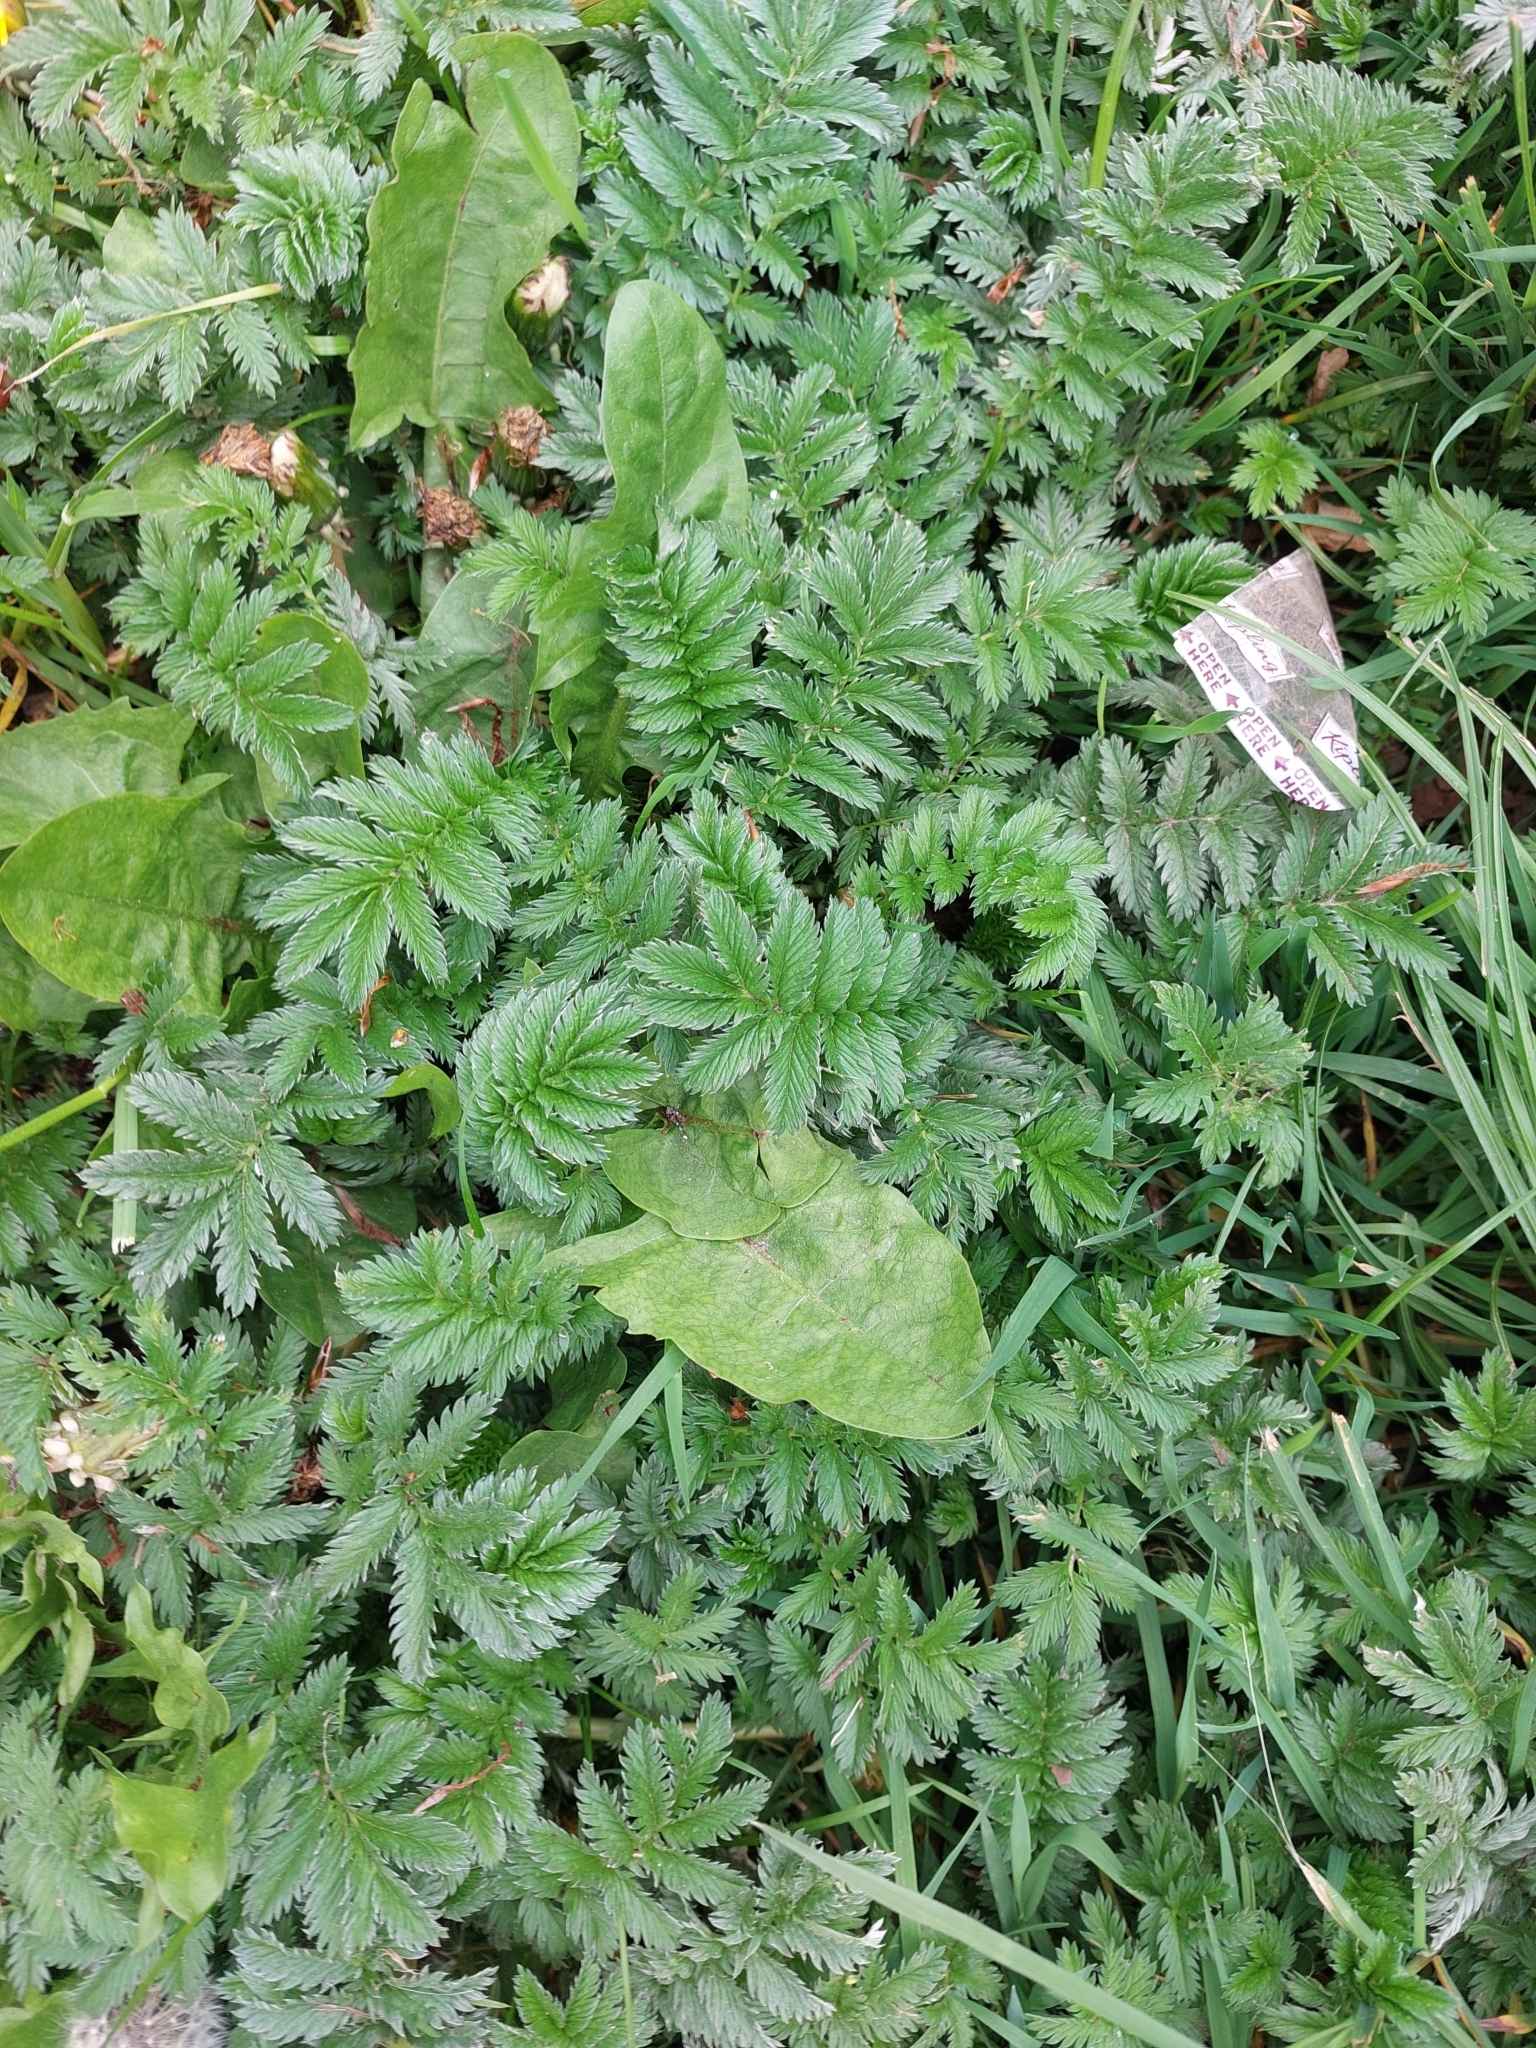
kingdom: Plantae
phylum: Tracheophyta
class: Magnoliopsida
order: Rosales
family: Rosaceae
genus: Argentina
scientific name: Argentina anserina
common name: Common silverweed
